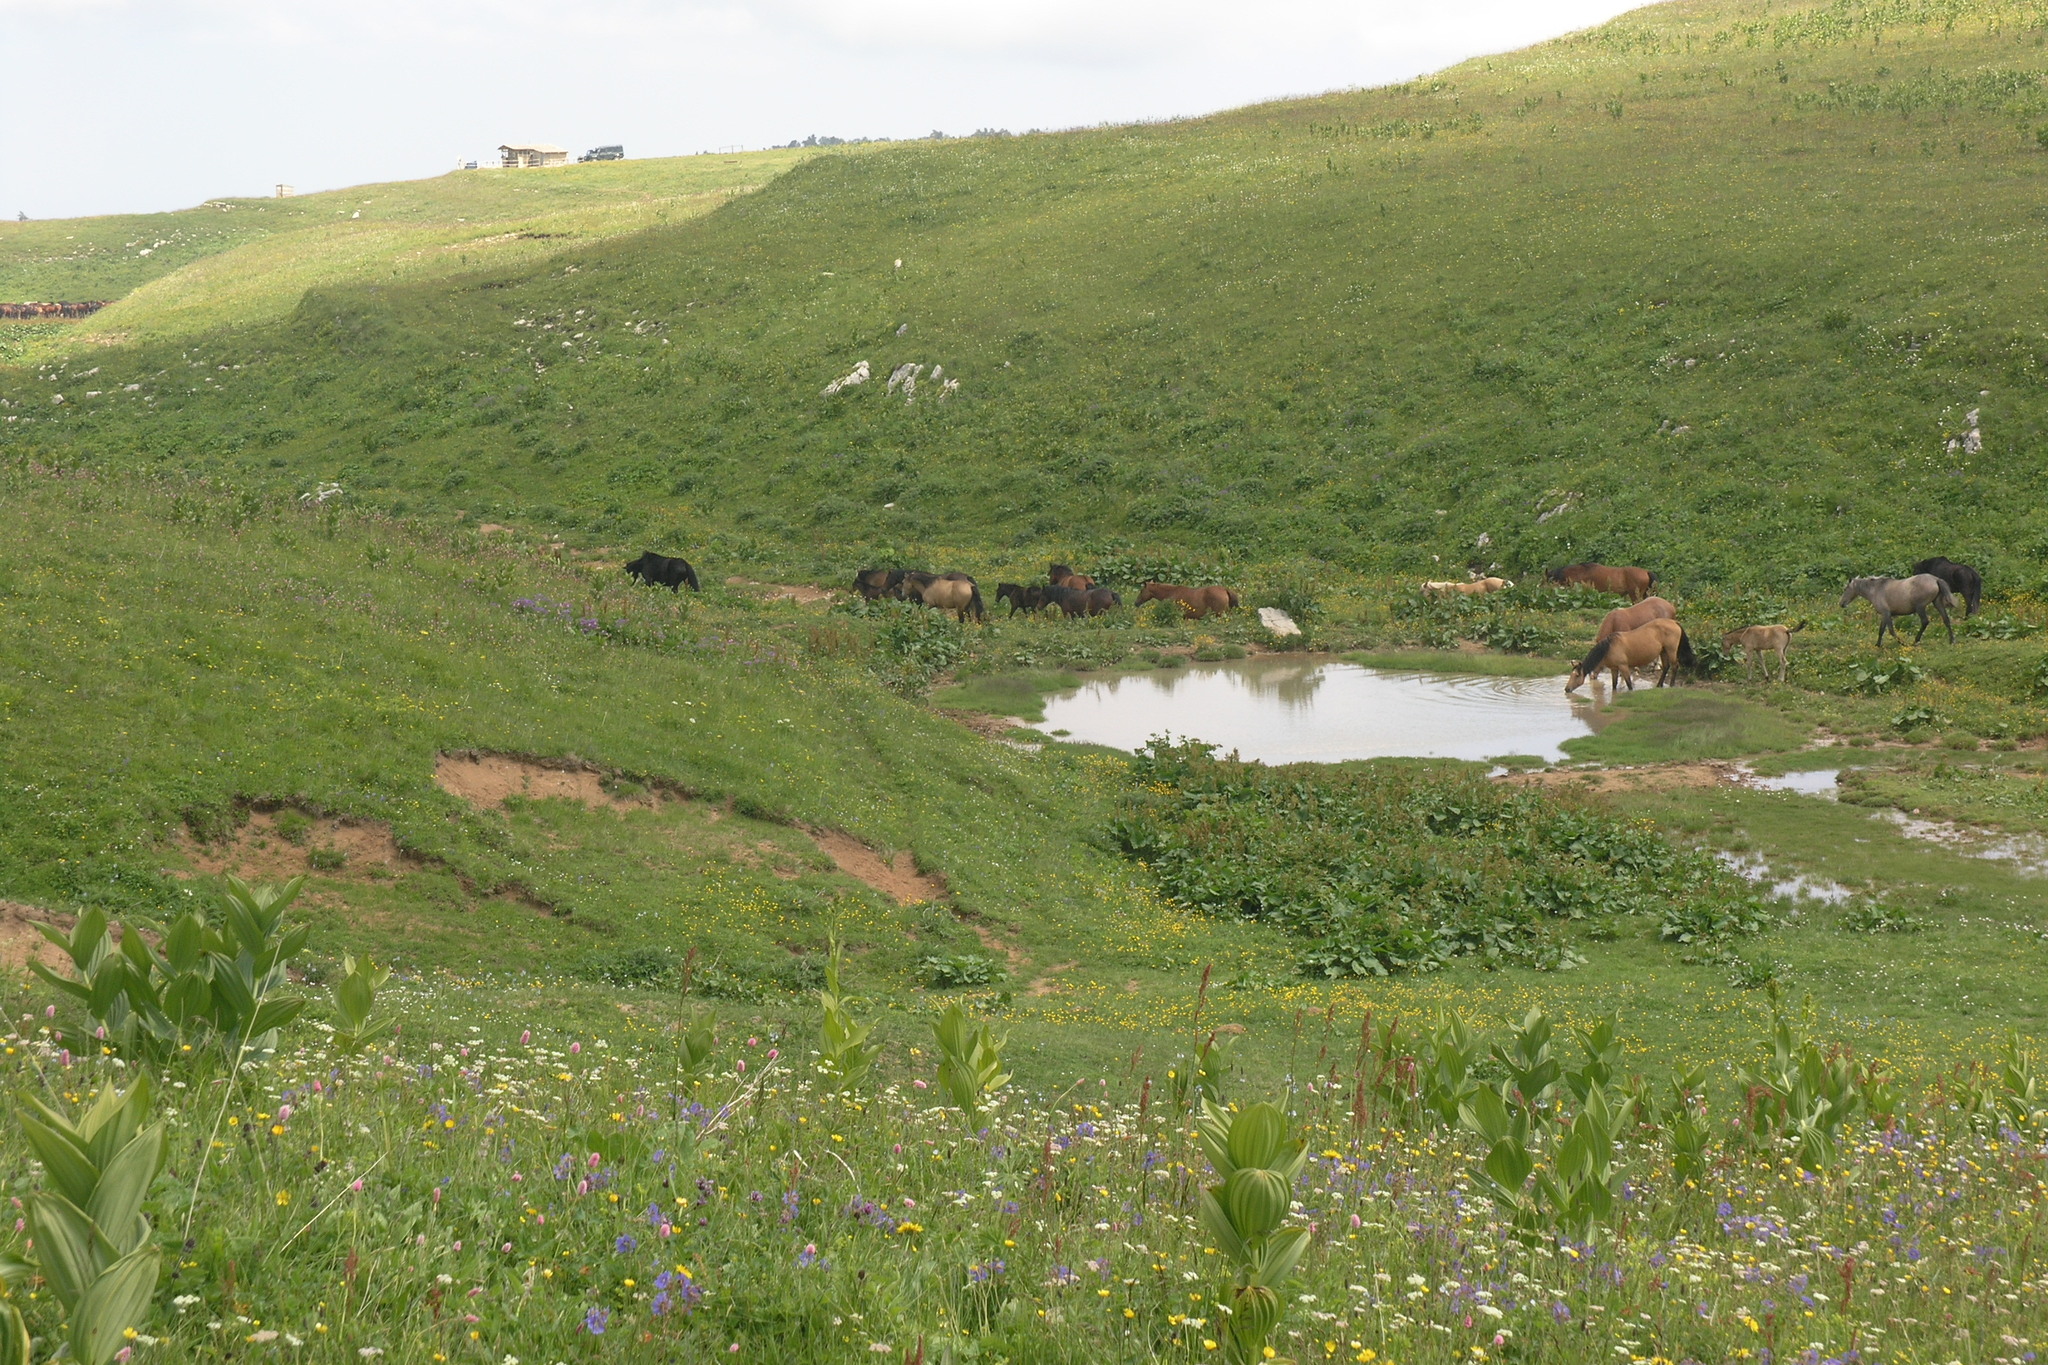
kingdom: Plantae
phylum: Tracheophyta
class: Liliopsida
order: Liliales
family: Melanthiaceae
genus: Veratrum
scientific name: Veratrum lobelianum
